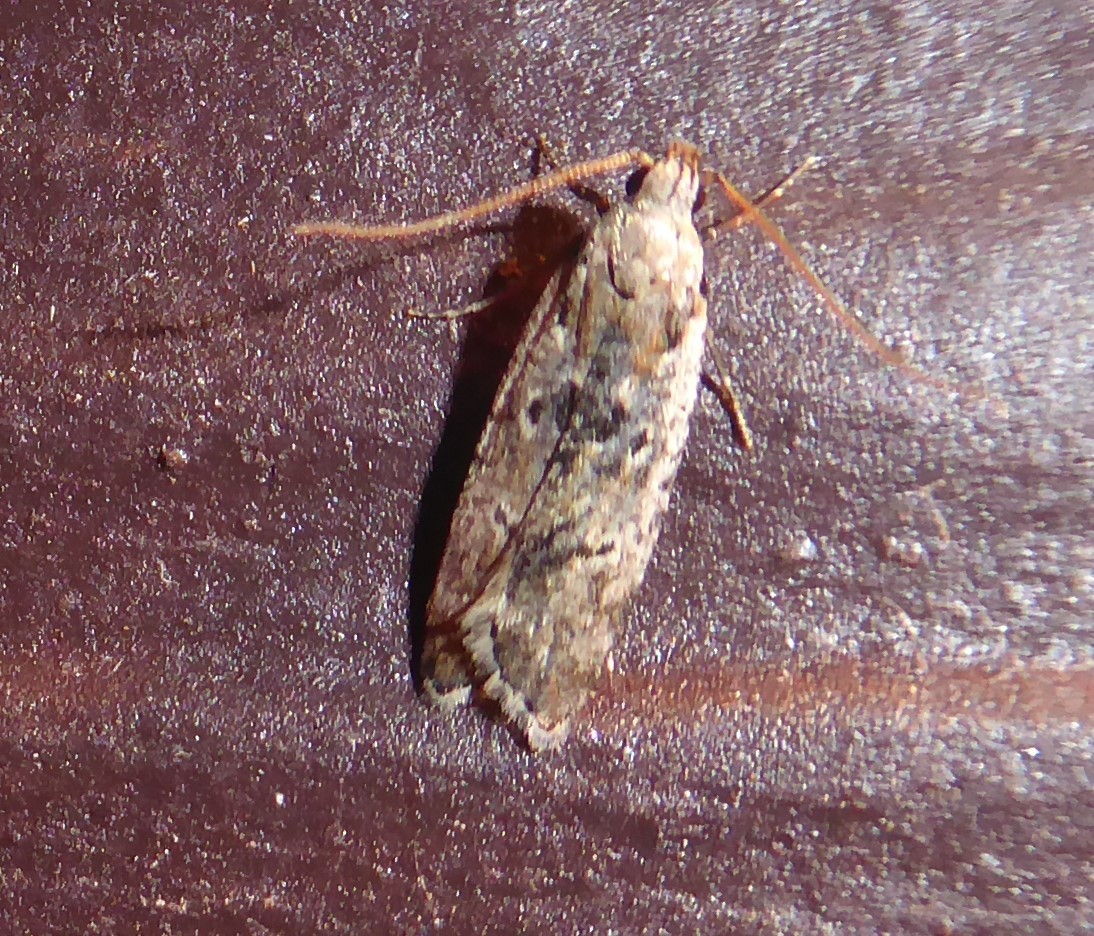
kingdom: Animalia
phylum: Arthropoda
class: Insecta
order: Lepidoptera
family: Gelechiidae
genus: Anisoplaca
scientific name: Anisoplaca achyrota
